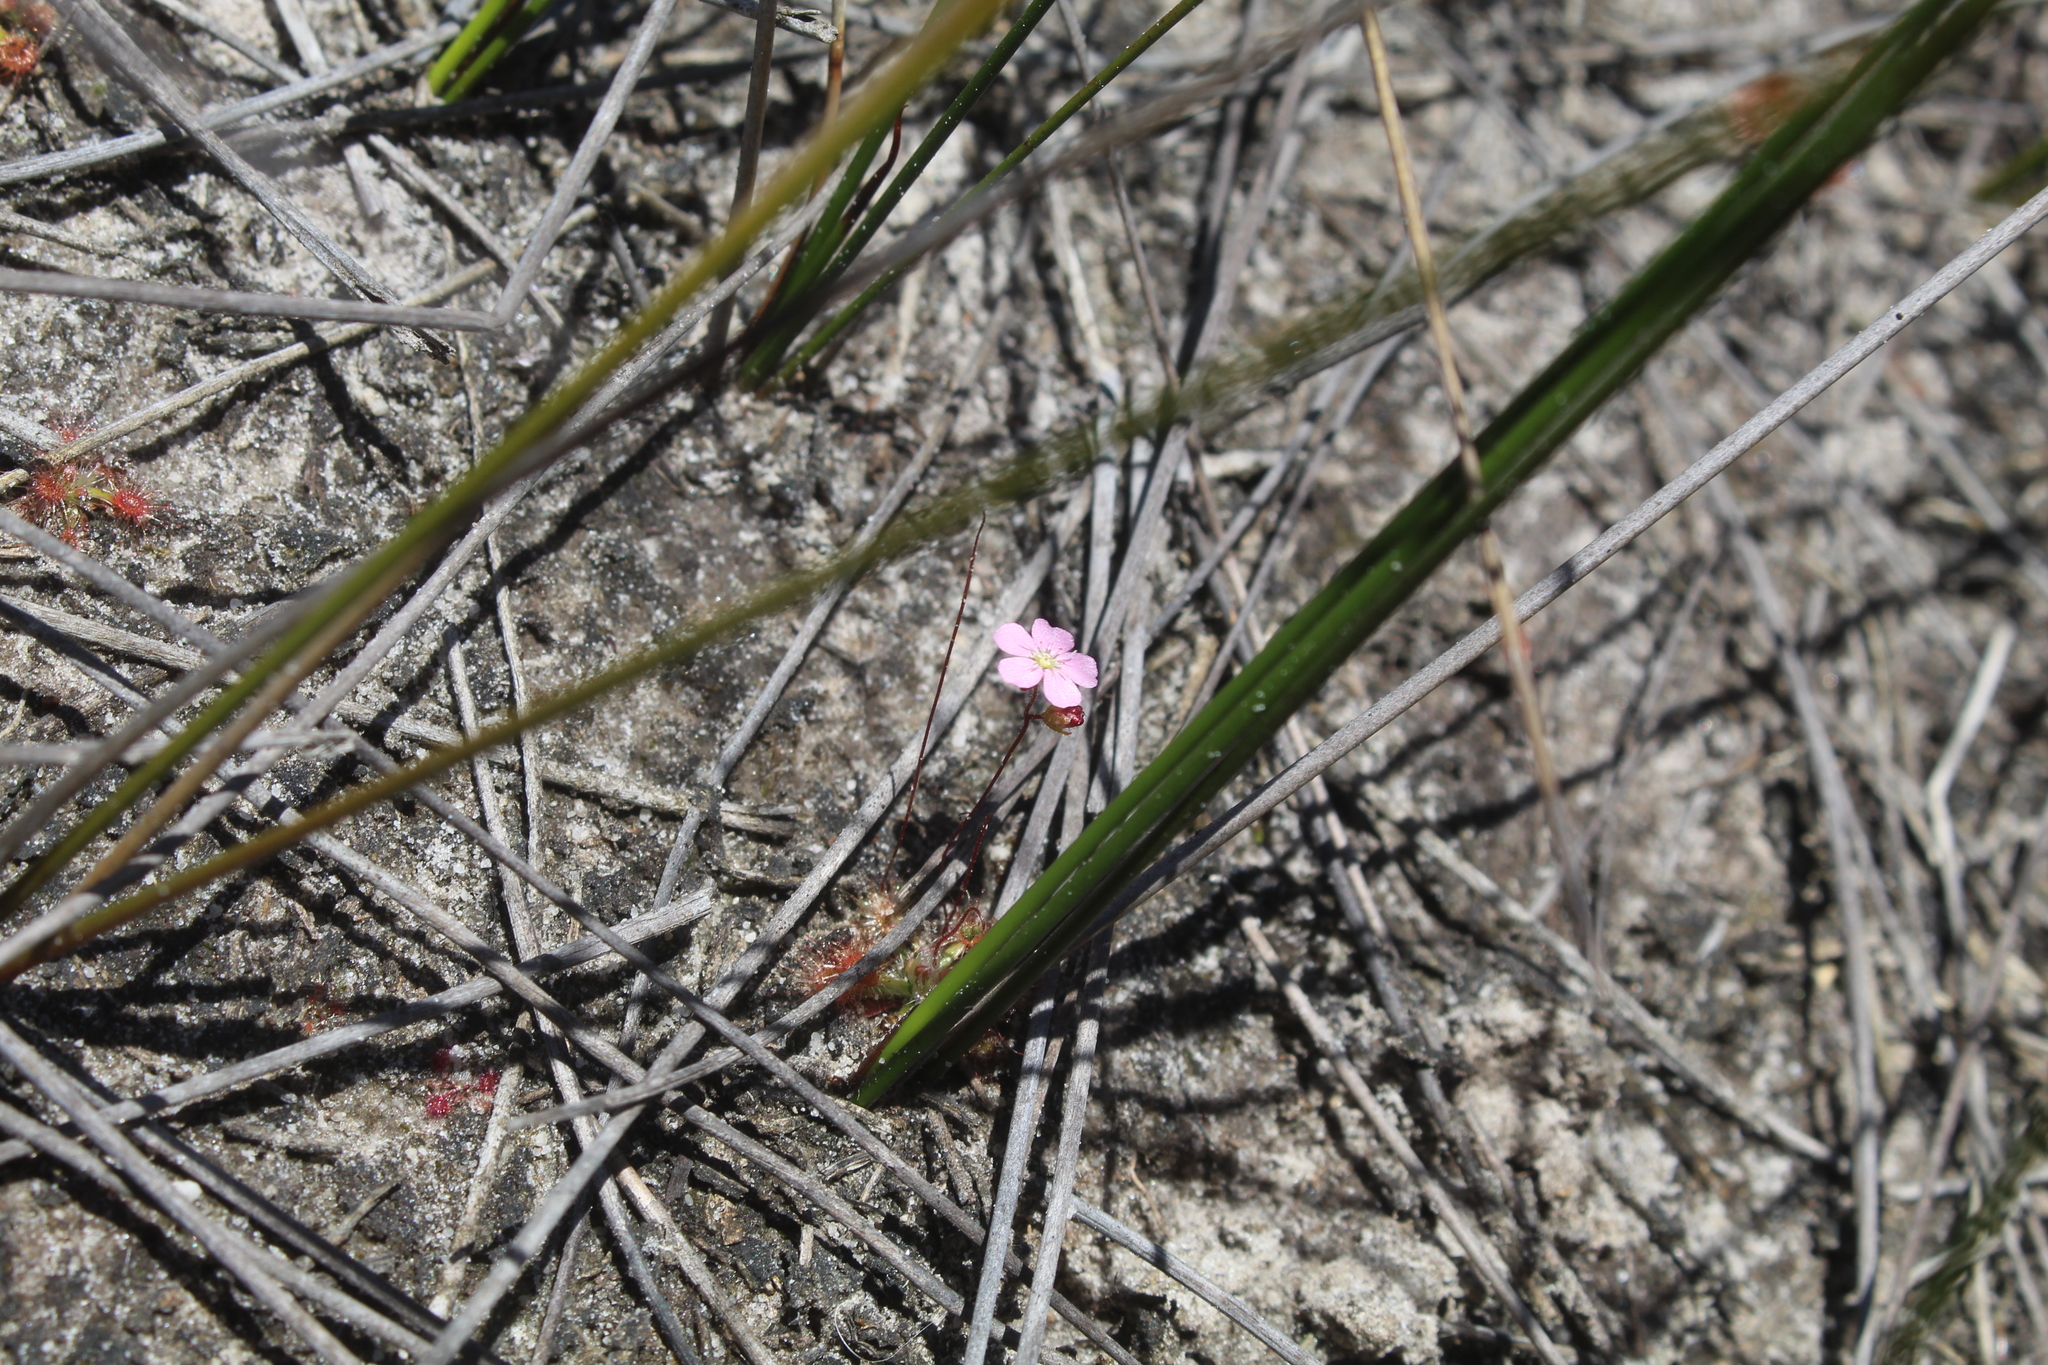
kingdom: Plantae
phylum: Tracheophyta
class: Magnoliopsida
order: Caryophyllales
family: Droseraceae
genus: Drosera
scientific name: Drosera pulchella
